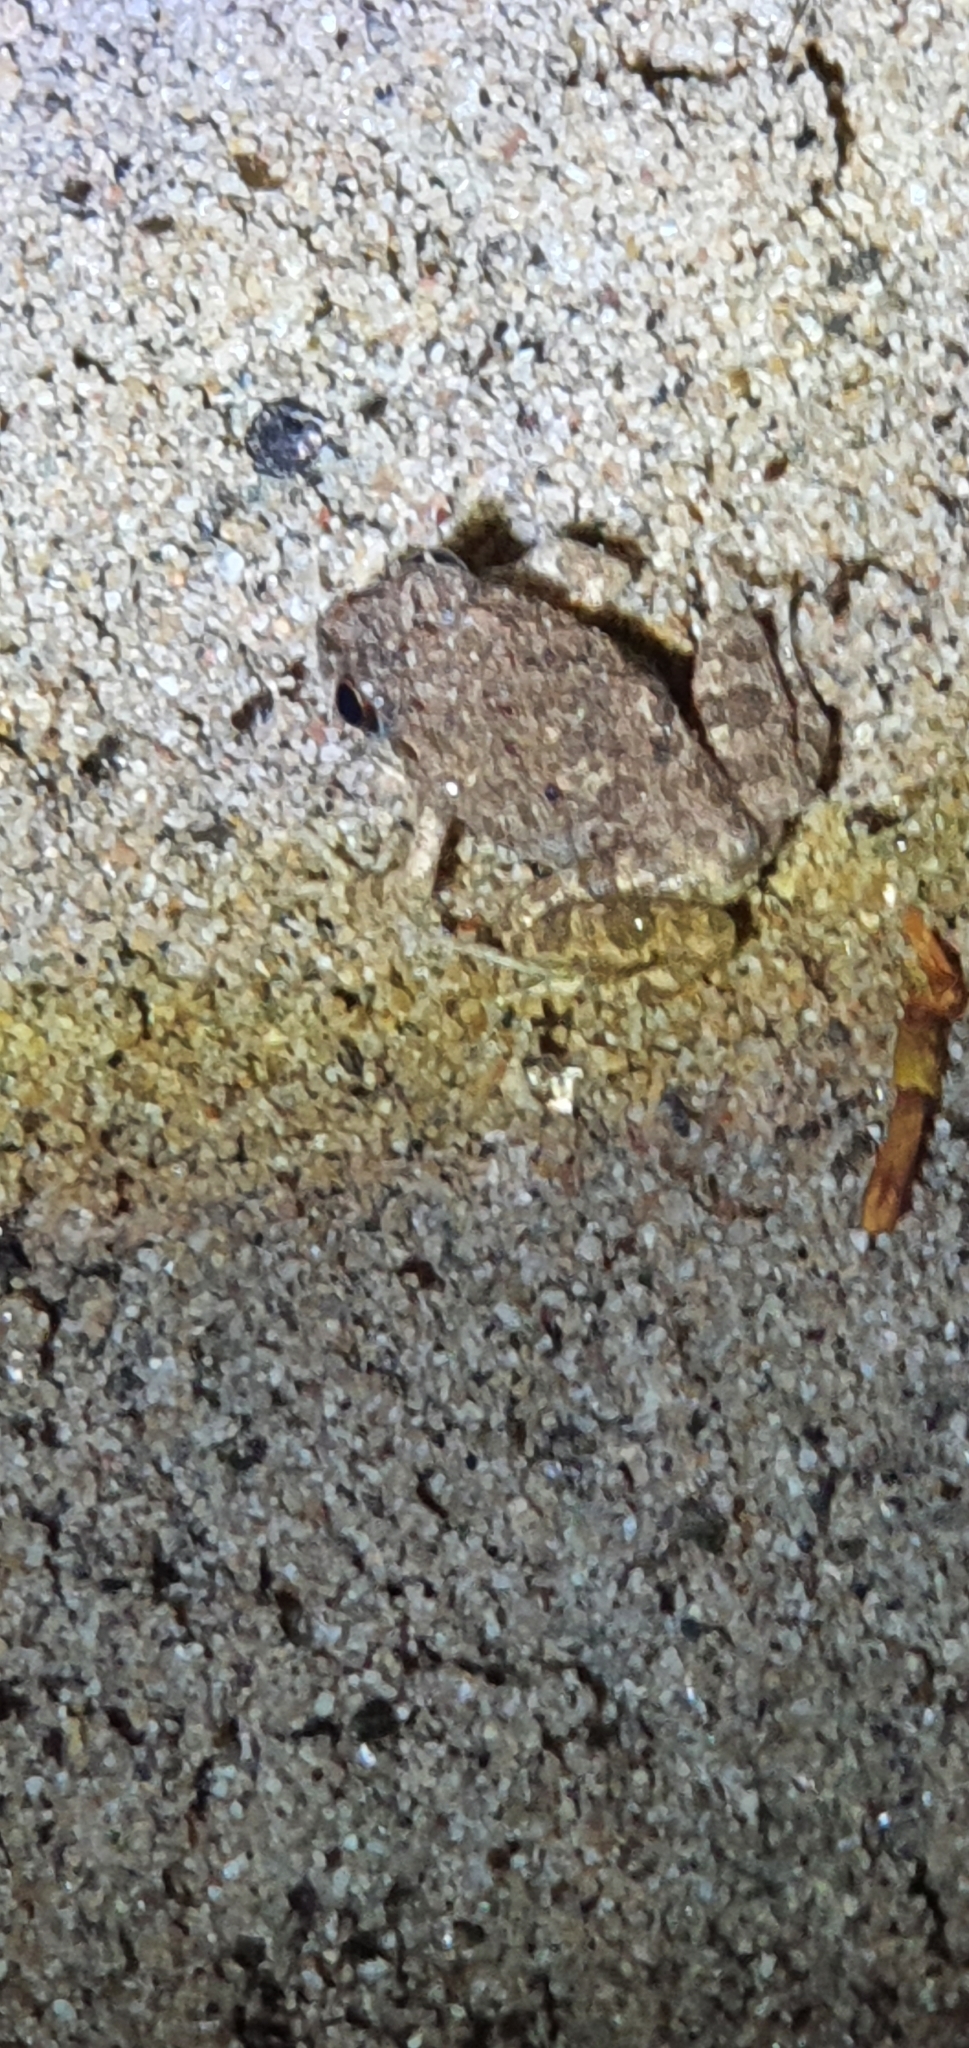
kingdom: Animalia
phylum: Chordata
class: Amphibia
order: Anura
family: Limnodynastidae
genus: Platyplectrum
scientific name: Platyplectrum ornatum
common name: Ornate burrowing frog
